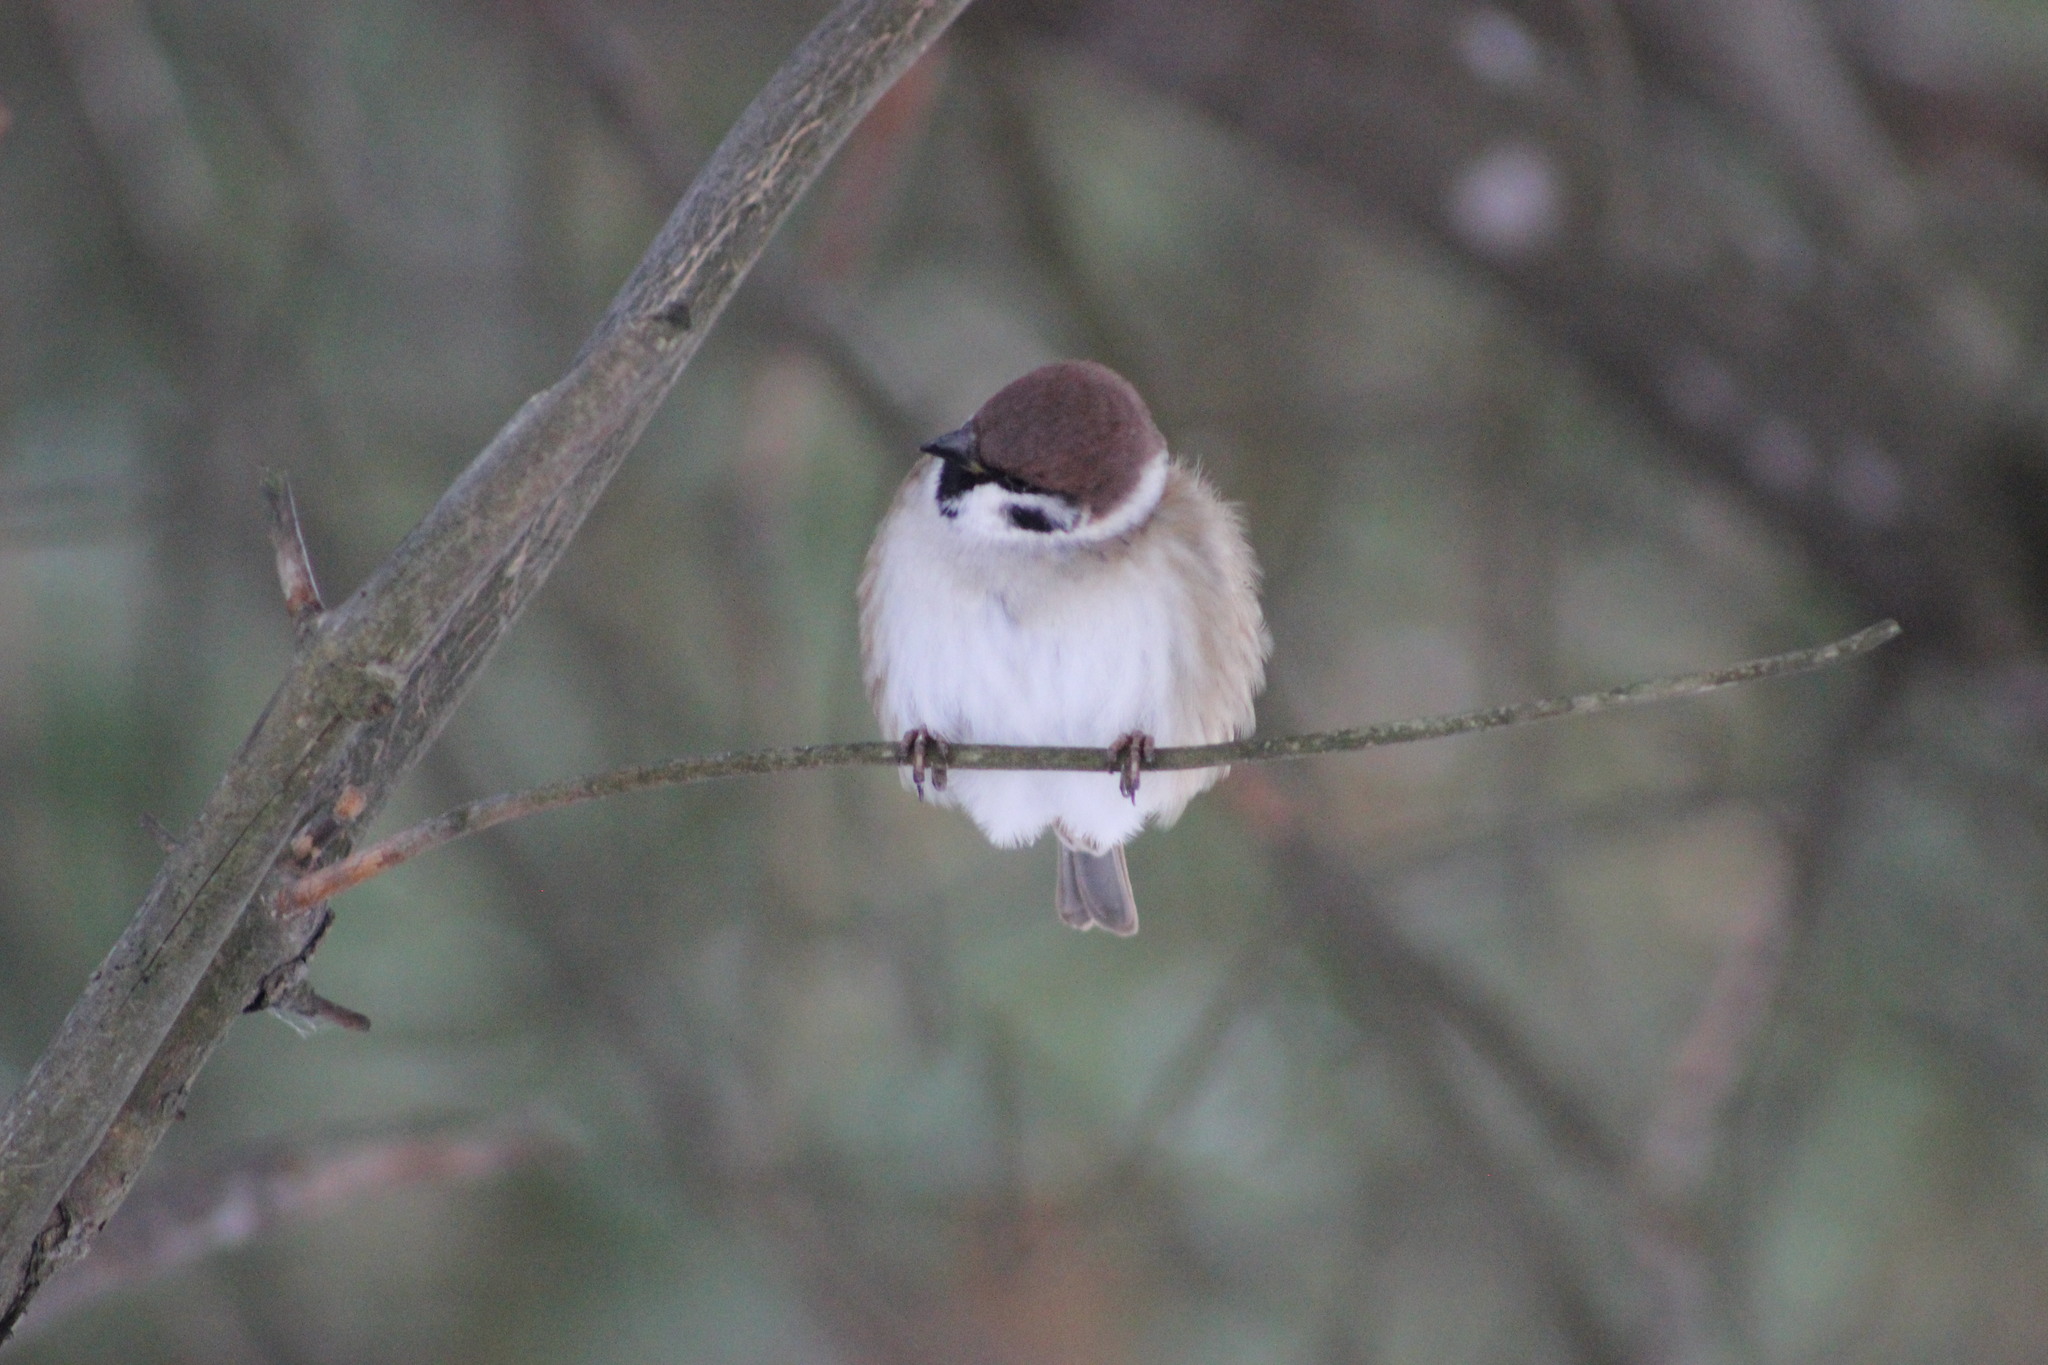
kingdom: Animalia
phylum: Chordata
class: Aves
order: Passeriformes
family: Passeridae
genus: Passer
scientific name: Passer montanus
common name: Eurasian tree sparrow
